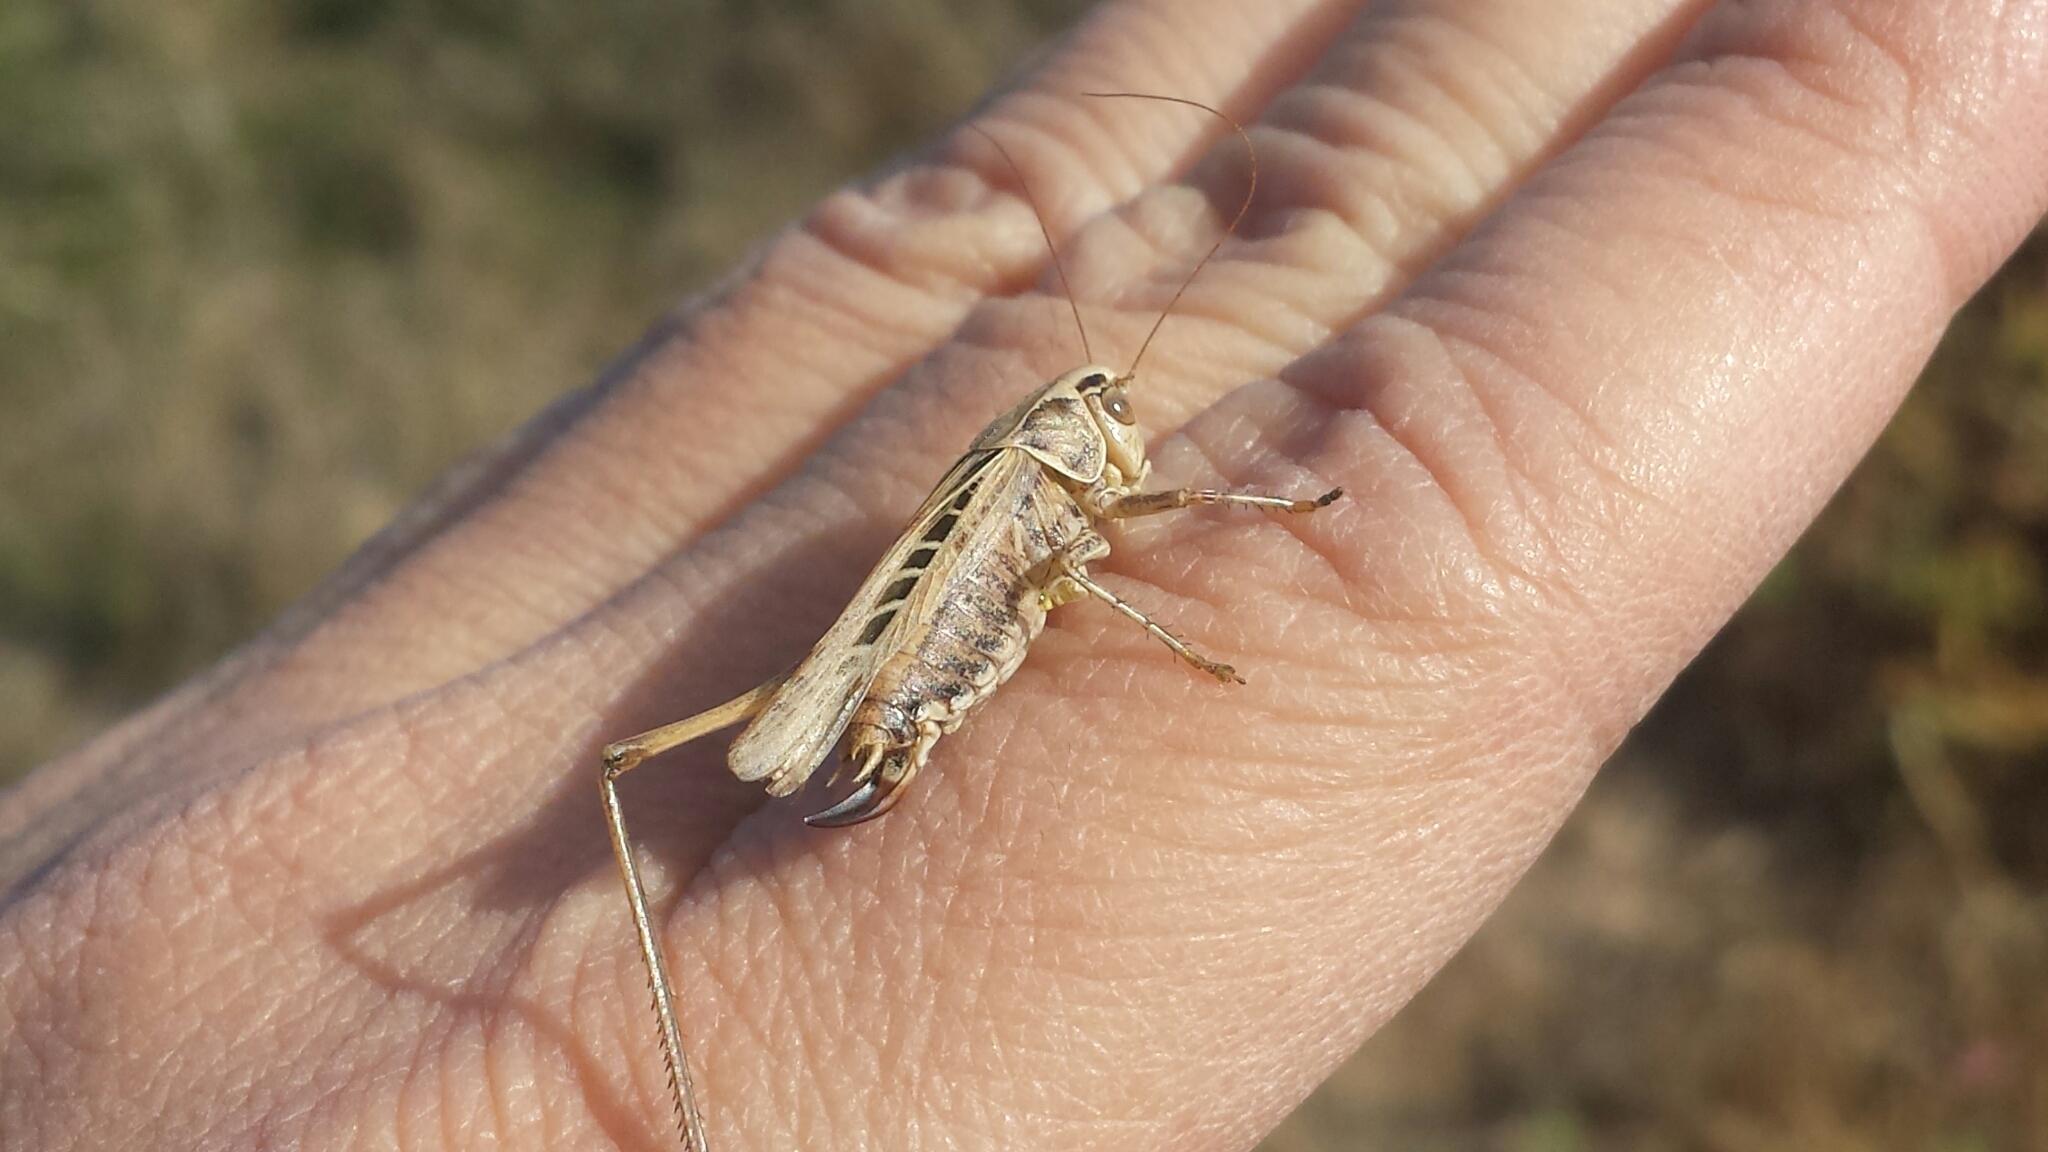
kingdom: Animalia
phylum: Arthropoda
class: Insecta
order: Orthoptera
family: Tettigoniidae
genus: Tessellana
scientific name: Tessellana tessellata
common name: Grasshopper
